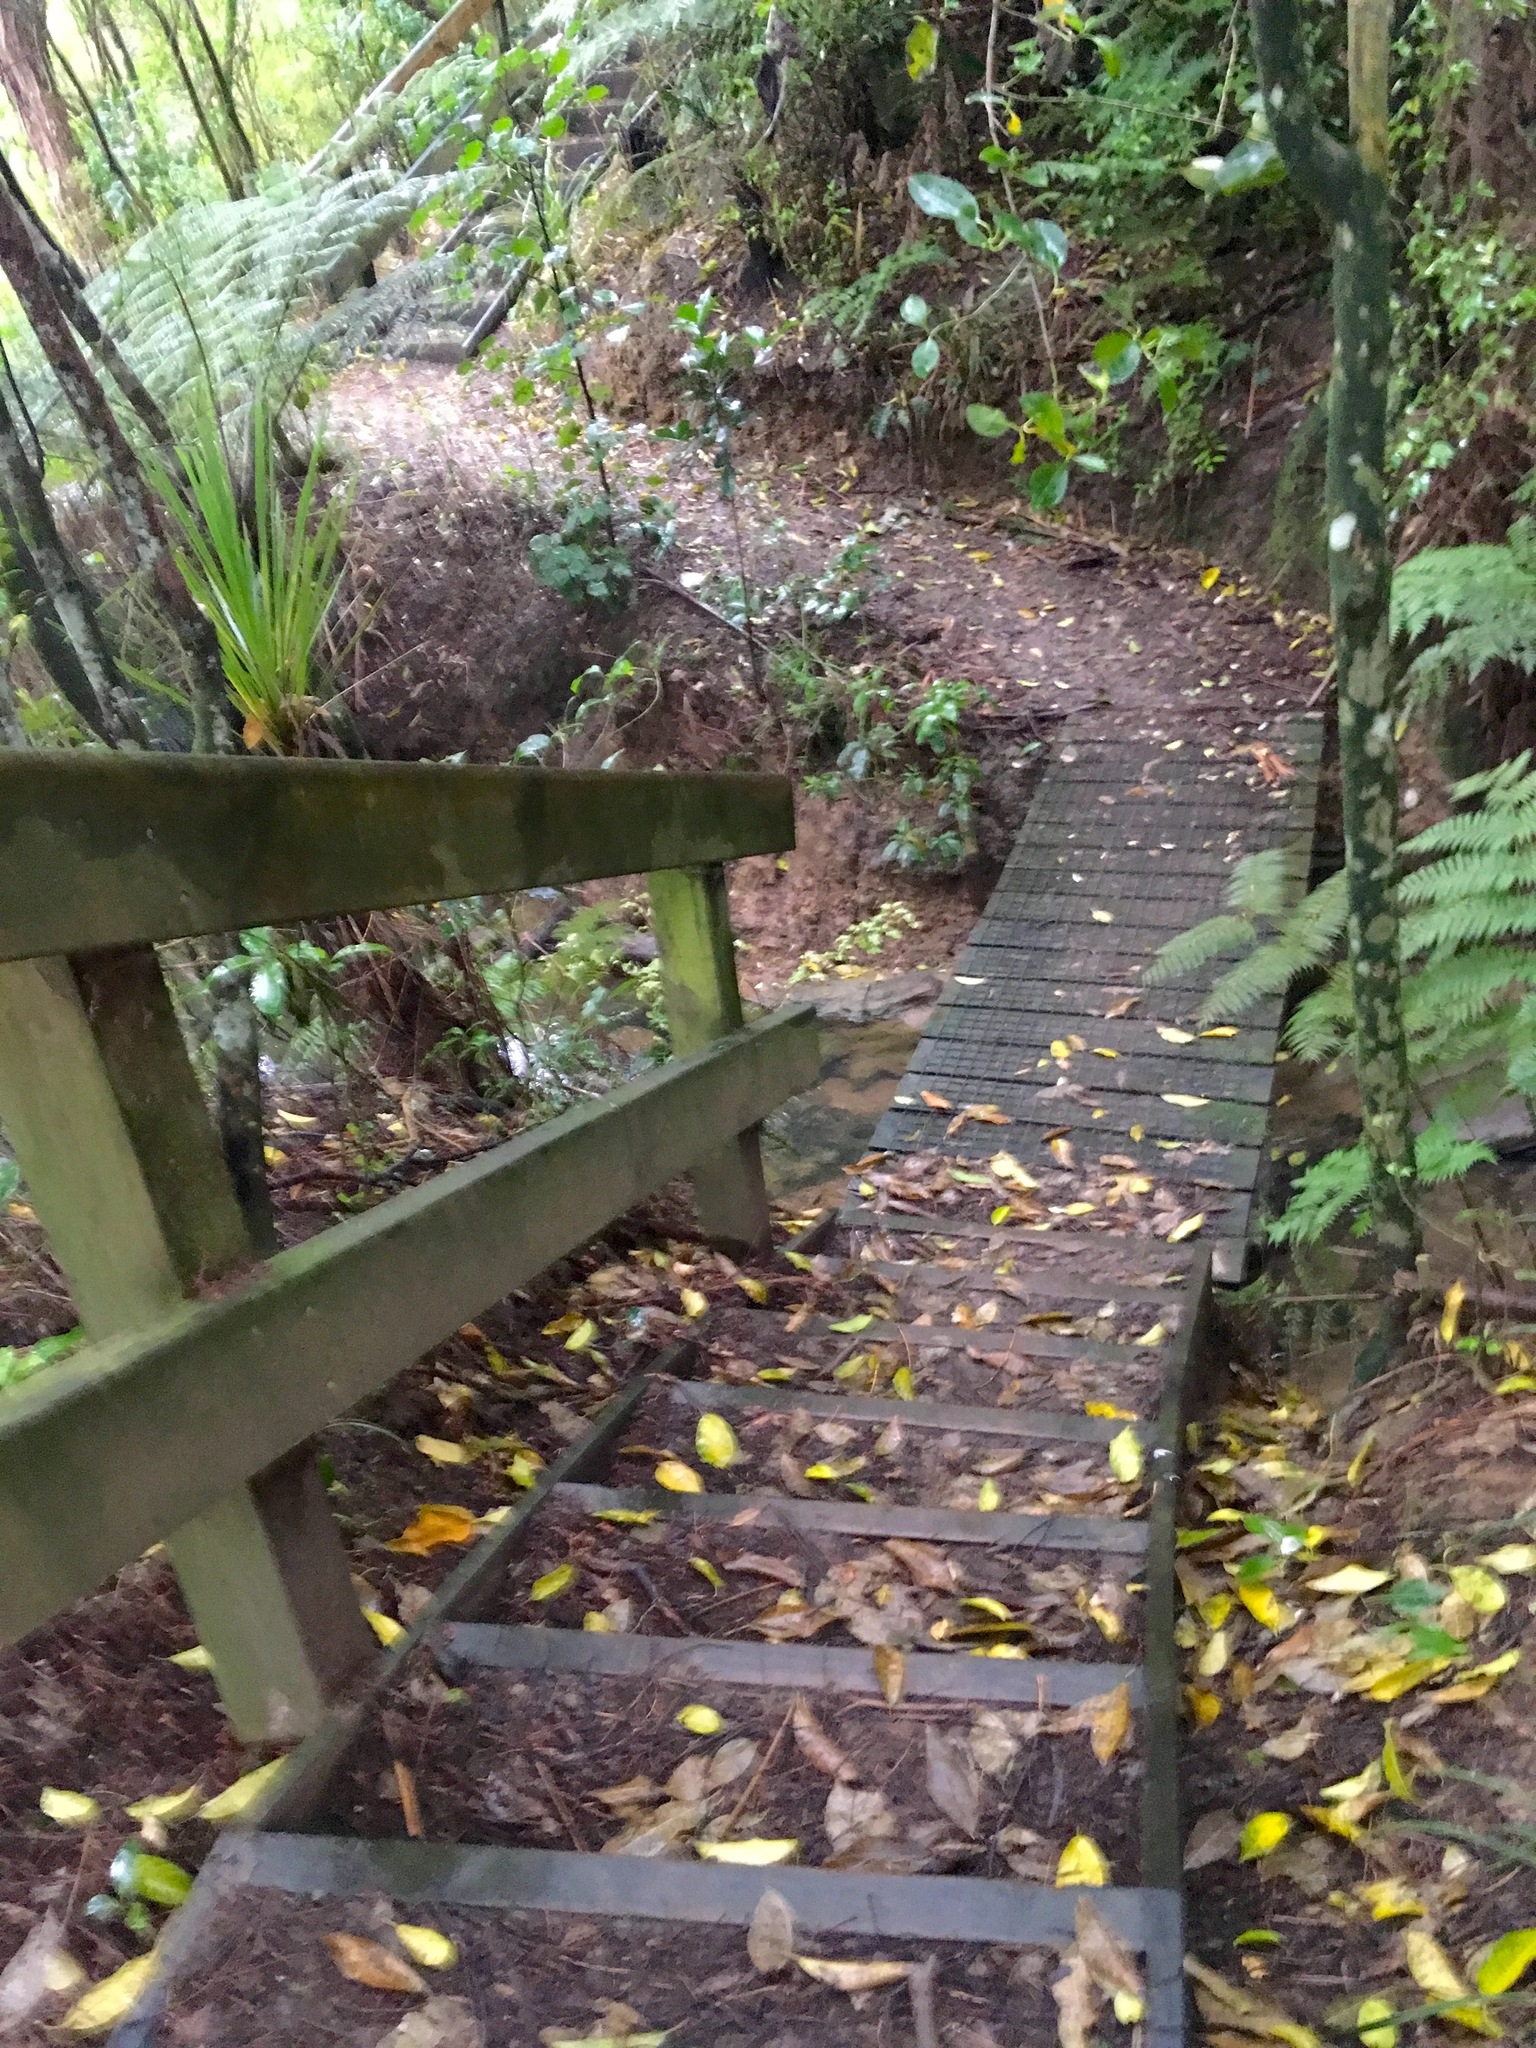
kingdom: Plantae
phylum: Tracheophyta
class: Liliopsida
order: Asparagales
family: Asparagaceae
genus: Cordyline
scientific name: Cordyline australis
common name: Cabbage-palm
